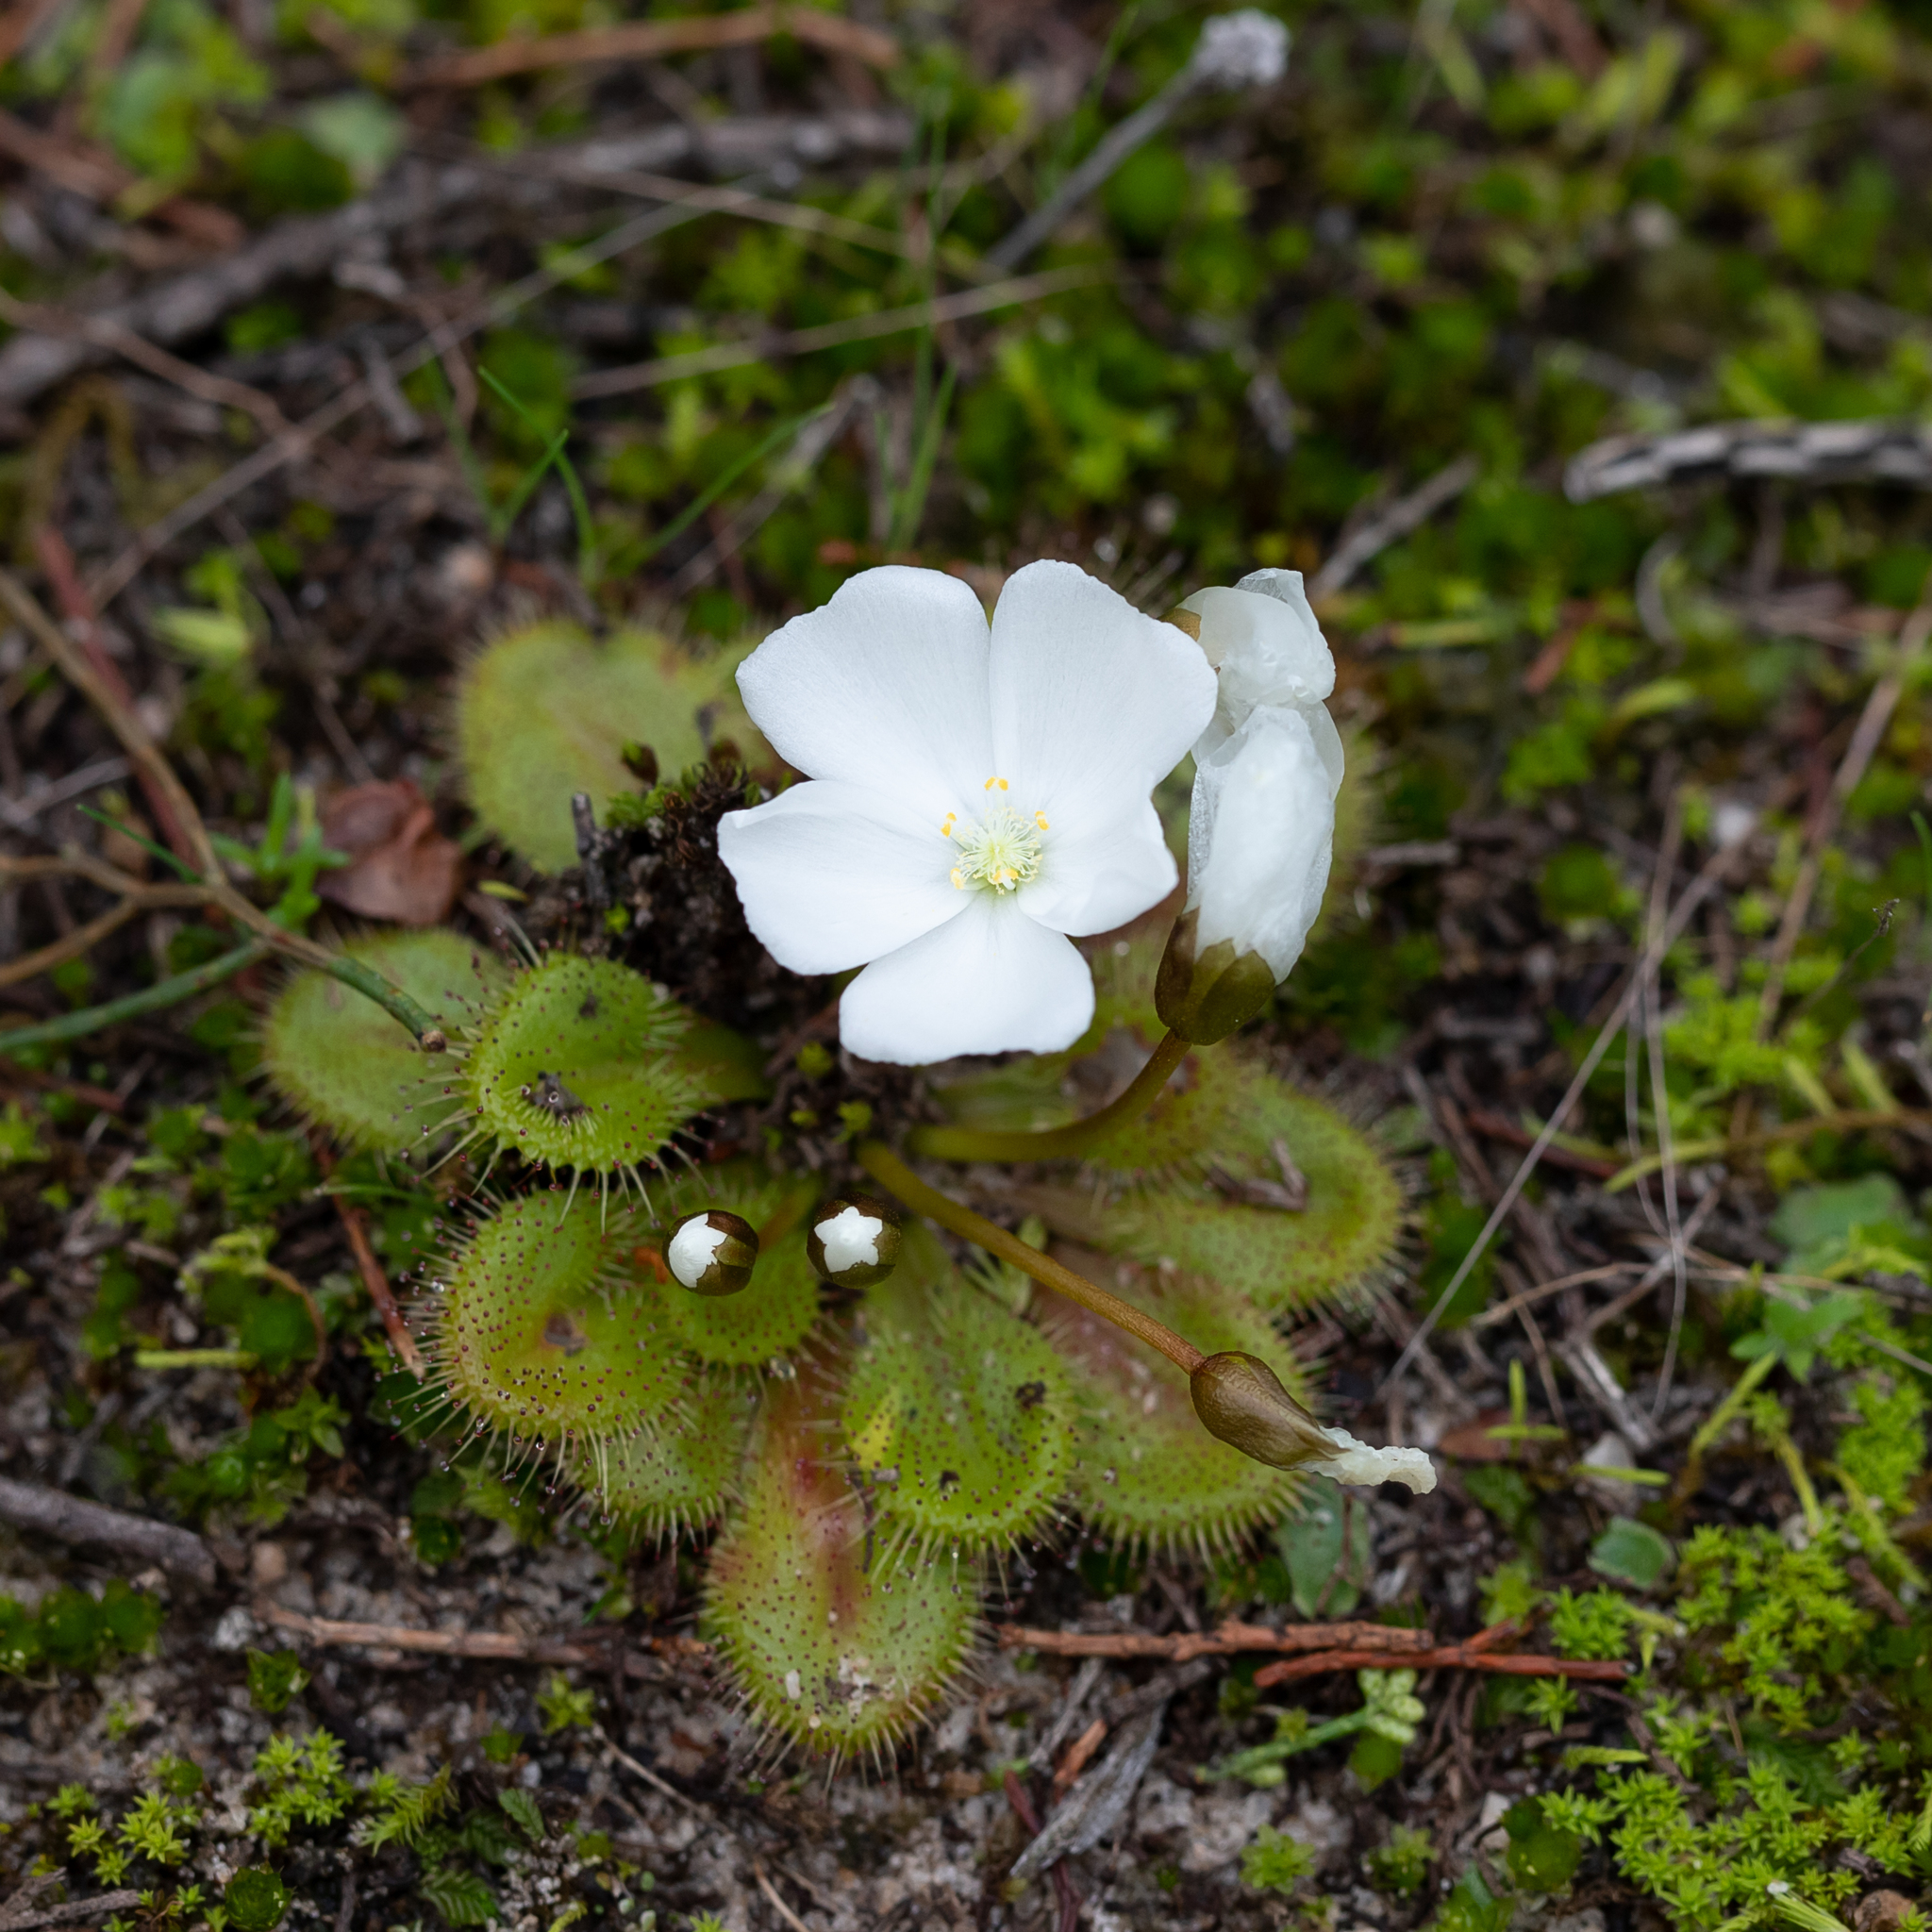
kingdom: Plantae
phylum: Tracheophyta
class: Magnoliopsida
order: Caryophyllales
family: Droseraceae
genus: Drosera
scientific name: Drosera whittakeri
